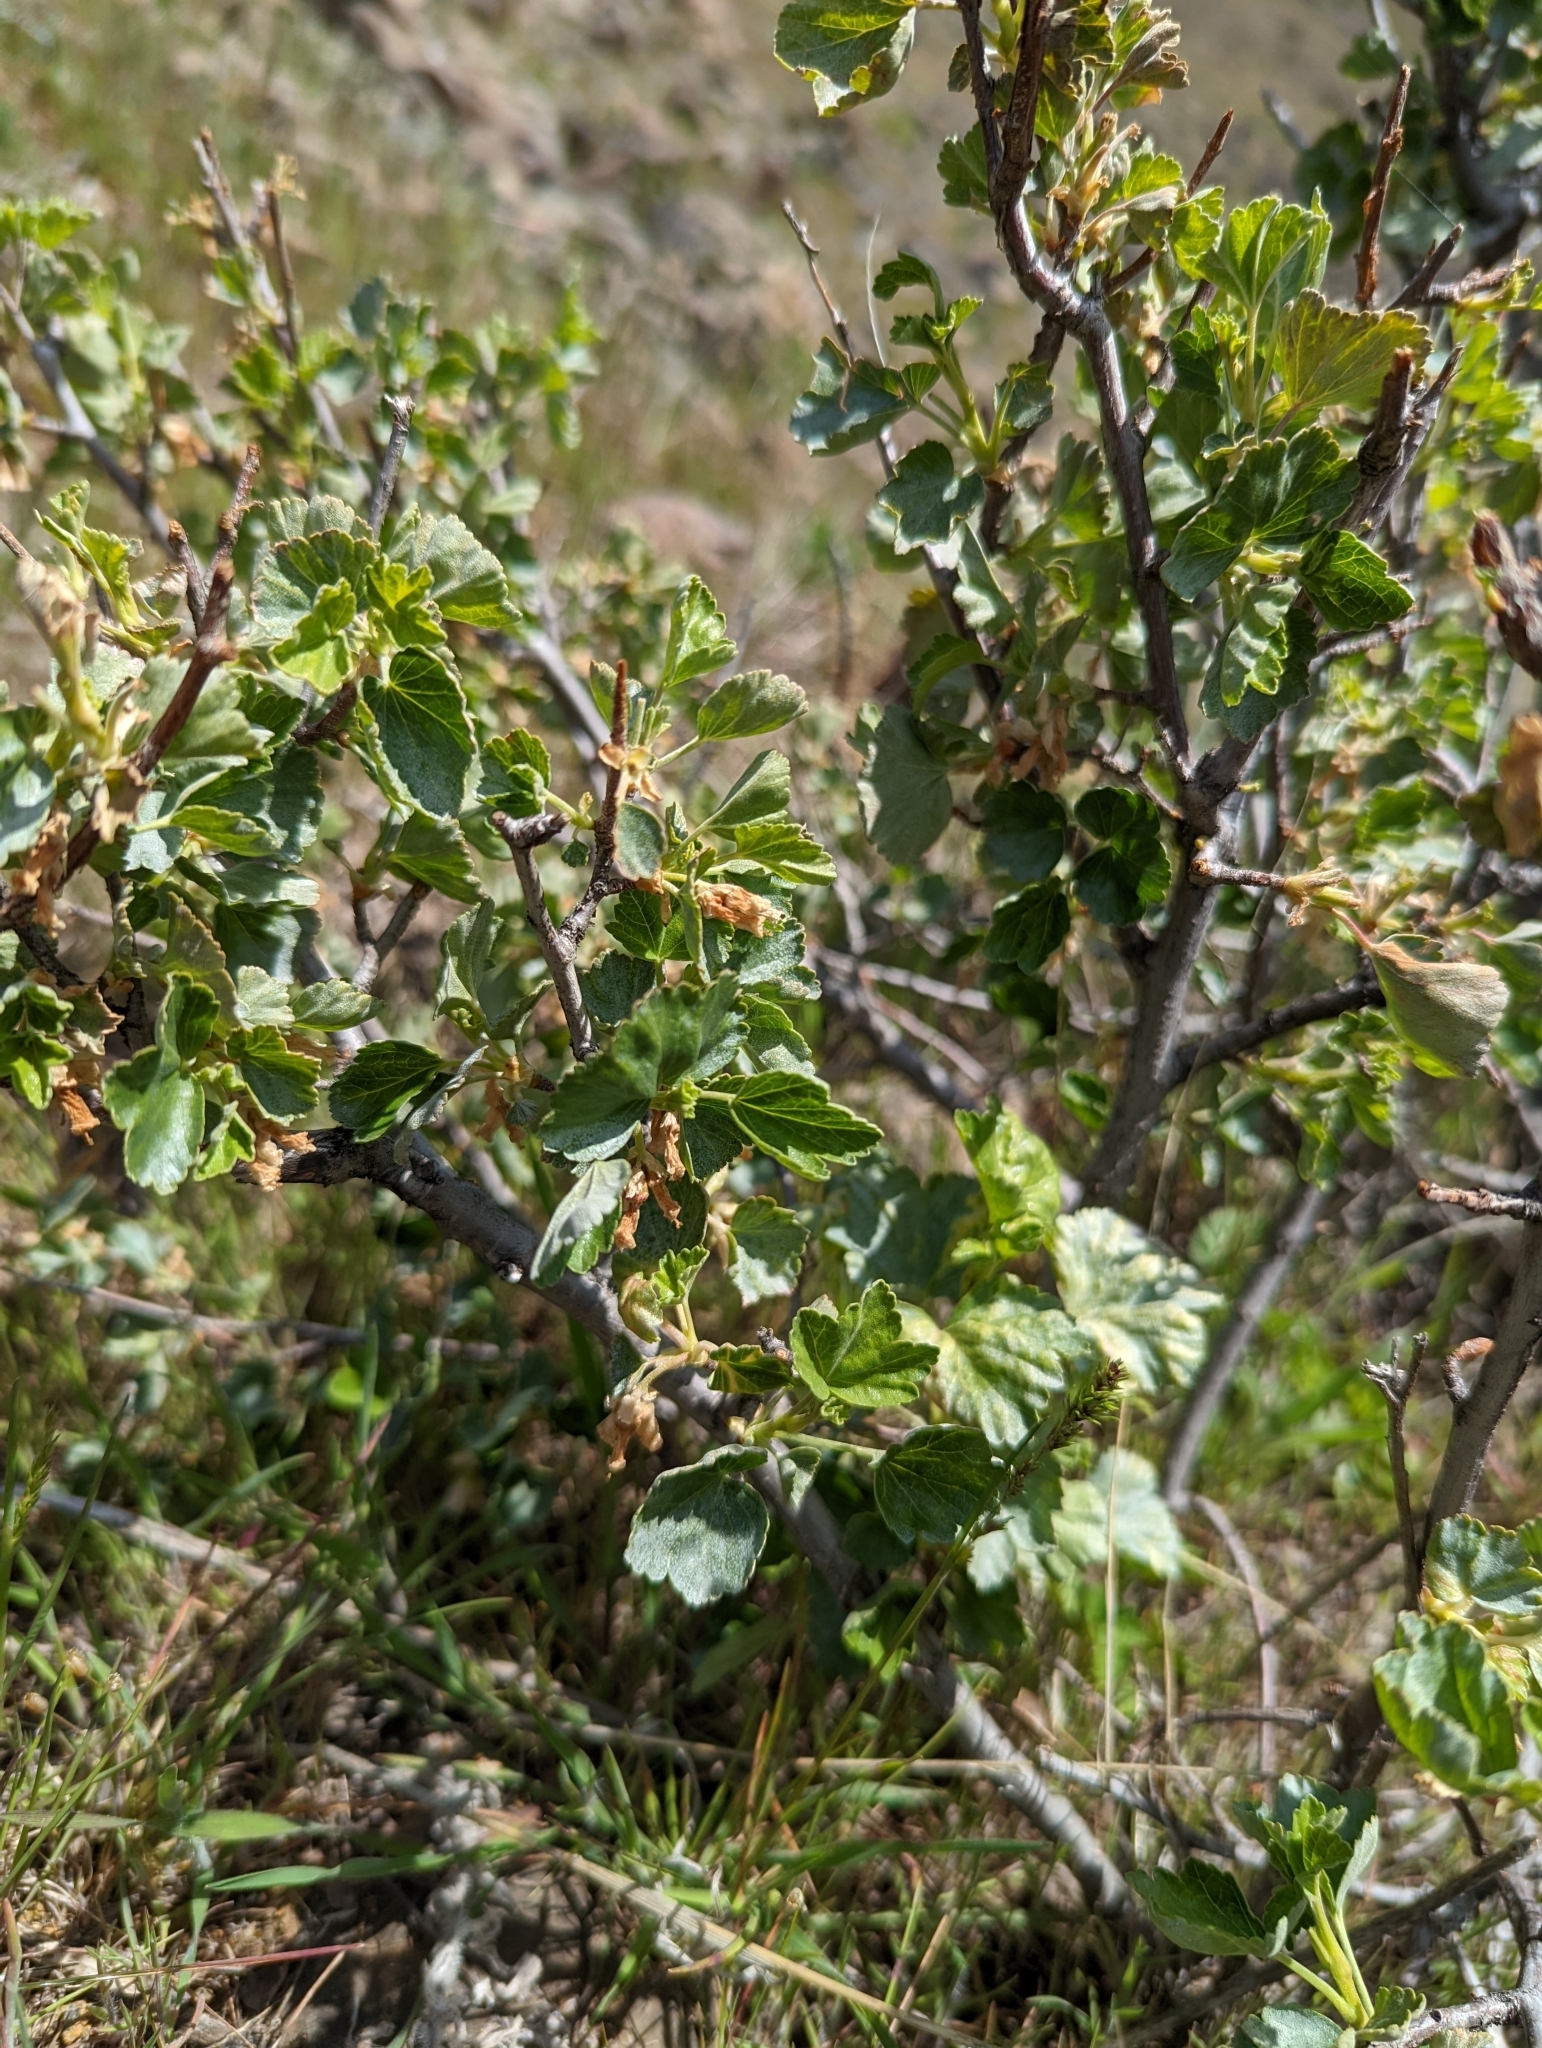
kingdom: Plantae
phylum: Tracheophyta
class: Magnoliopsida
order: Saxifragales
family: Grossulariaceae
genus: Ribes
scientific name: Ribes cereum
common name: Wax currant
